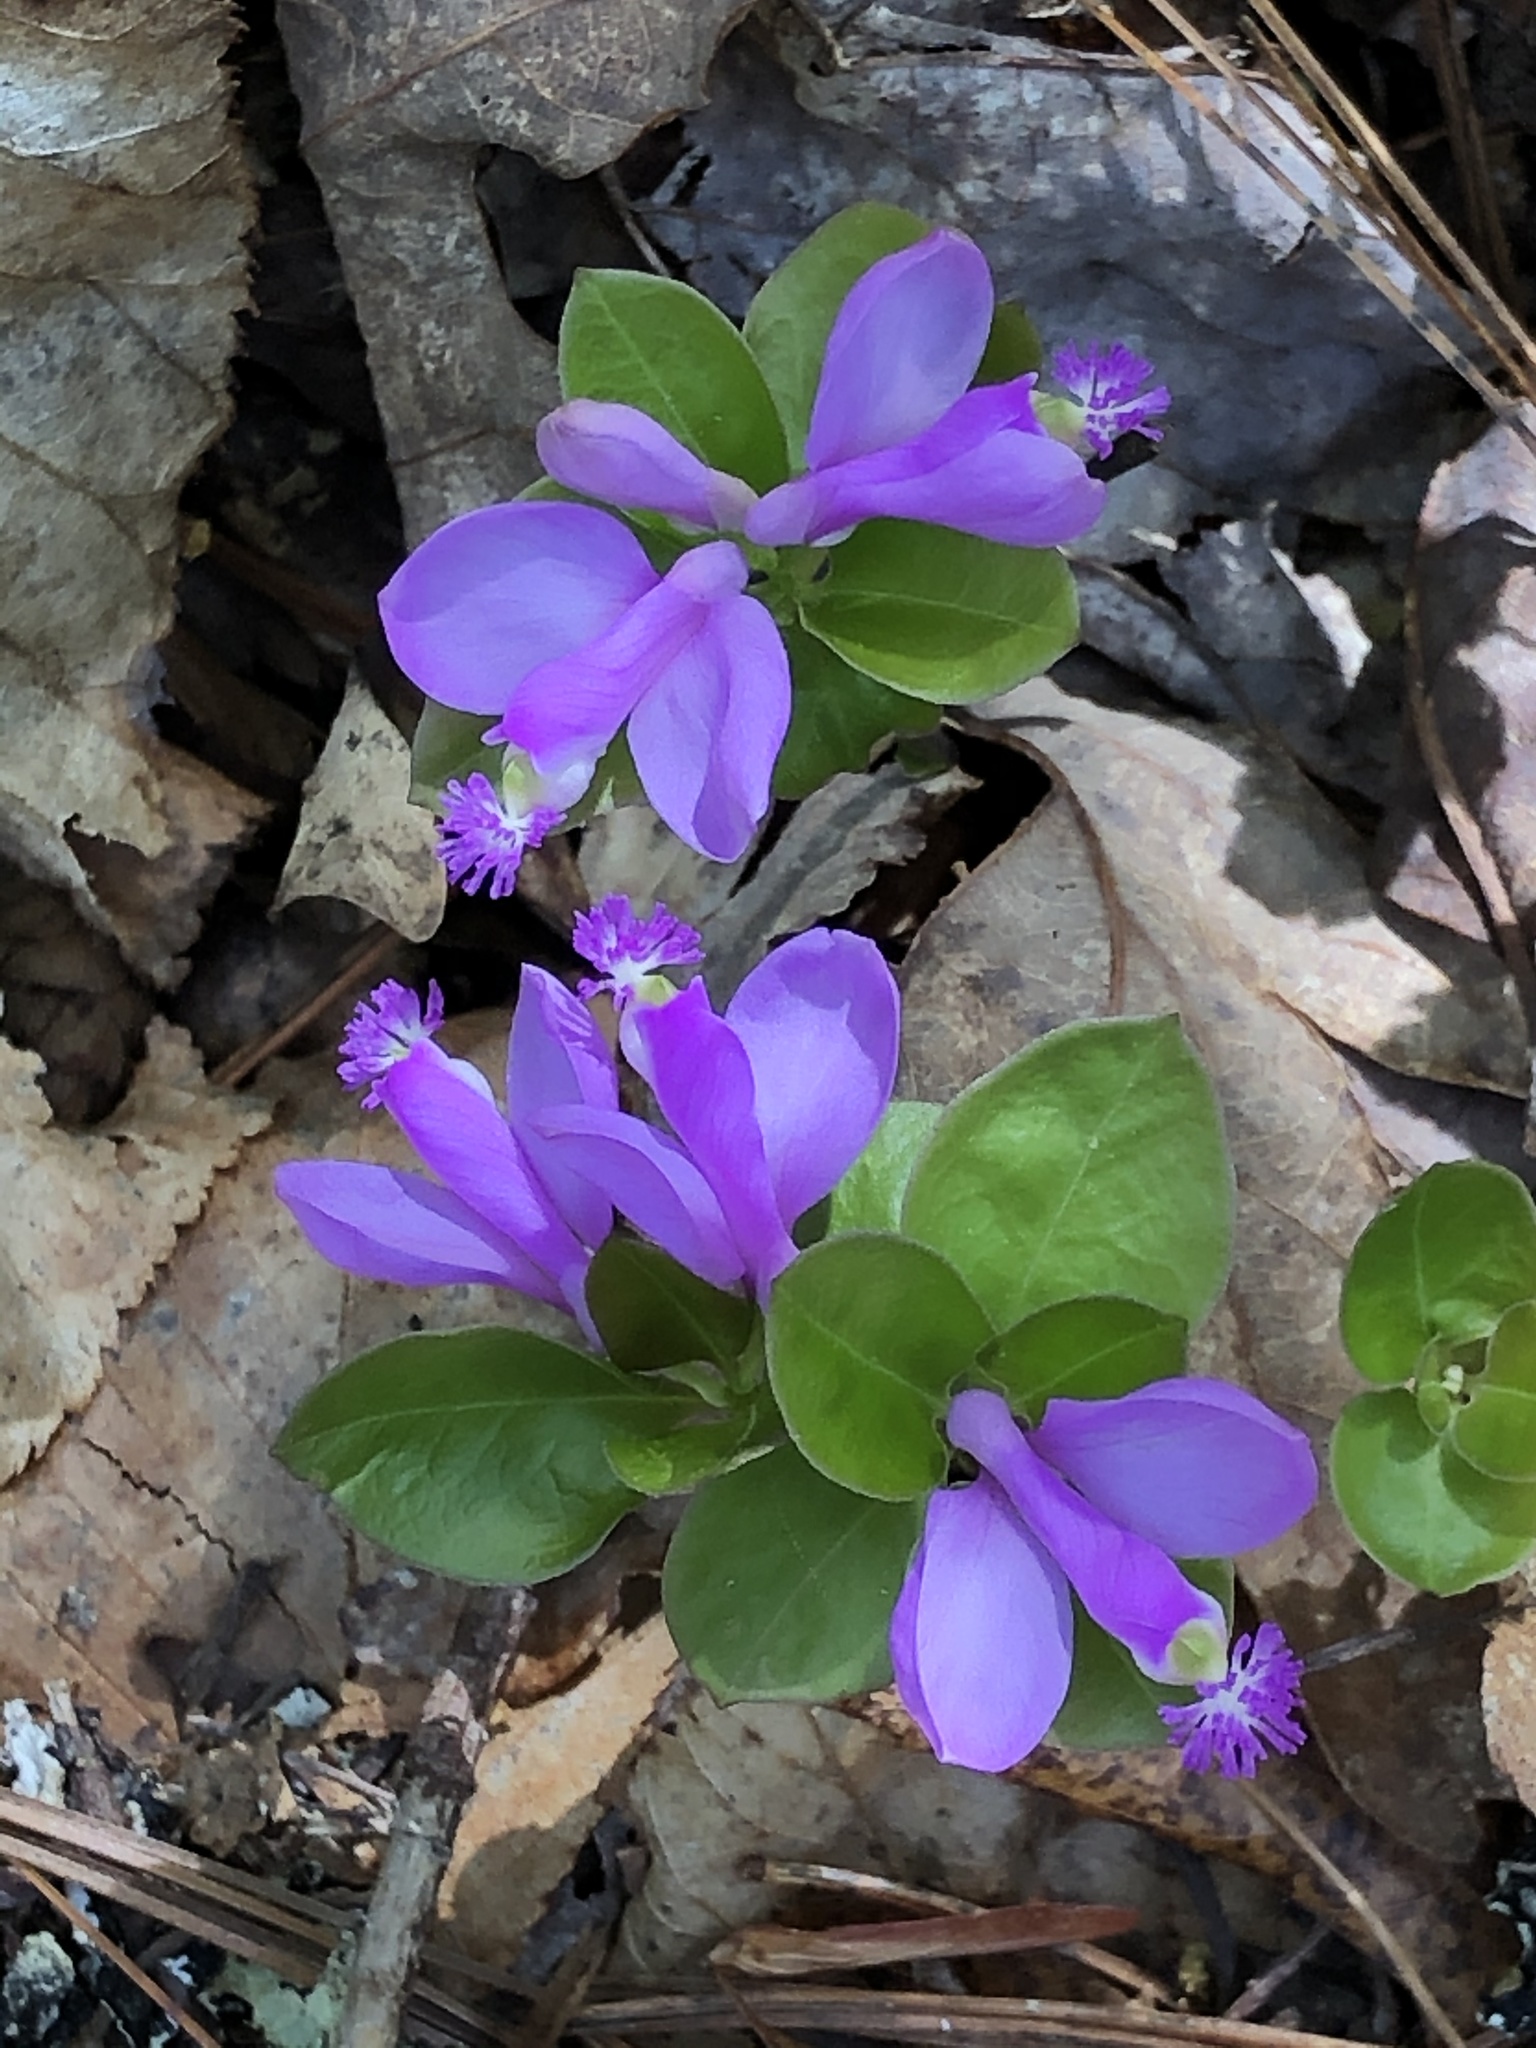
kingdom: Plantae
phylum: Tracheophyta
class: Magnoliopsida
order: Fabales
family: Polygalaceae
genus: Polygaloides
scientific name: Polygaloides paucifolia
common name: Bird-on-the-wing
